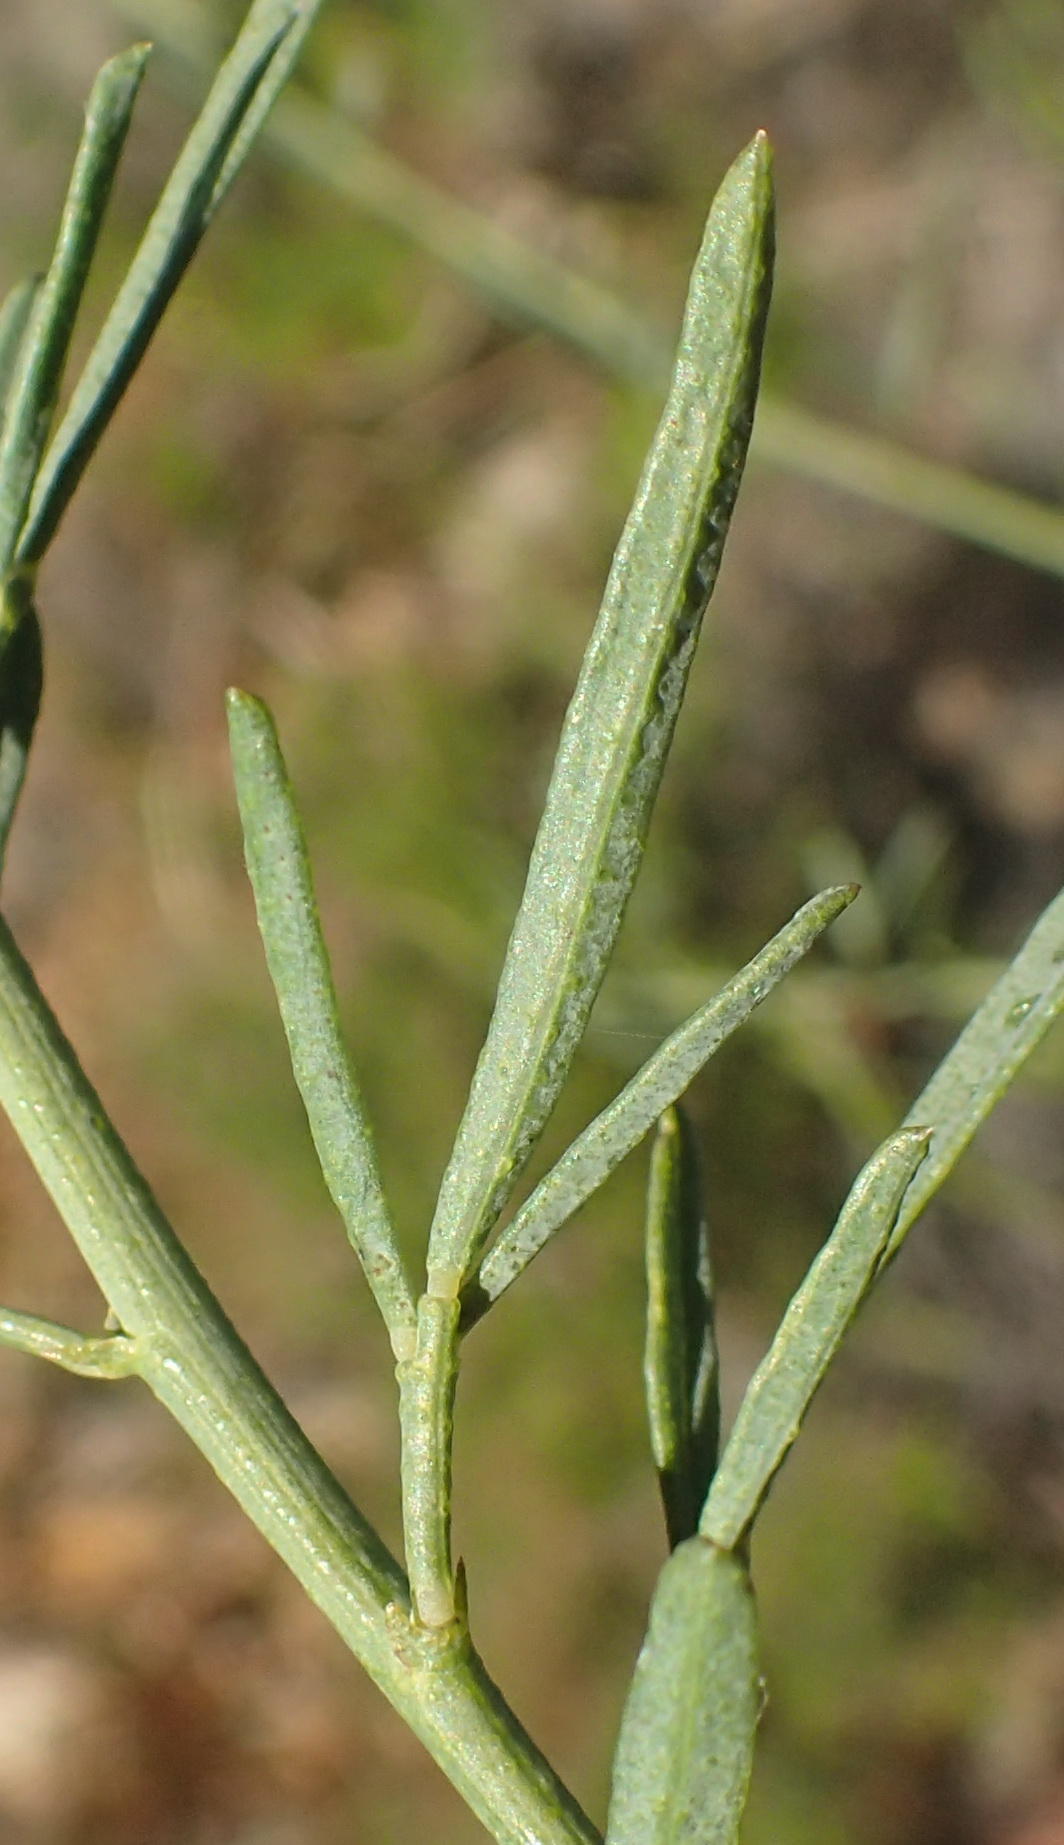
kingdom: Plantae
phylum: Tracheophyta
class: Magnoliopsida
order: Fabales
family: Fabaceae
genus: Psoralea
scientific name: Psoralea axillaris
